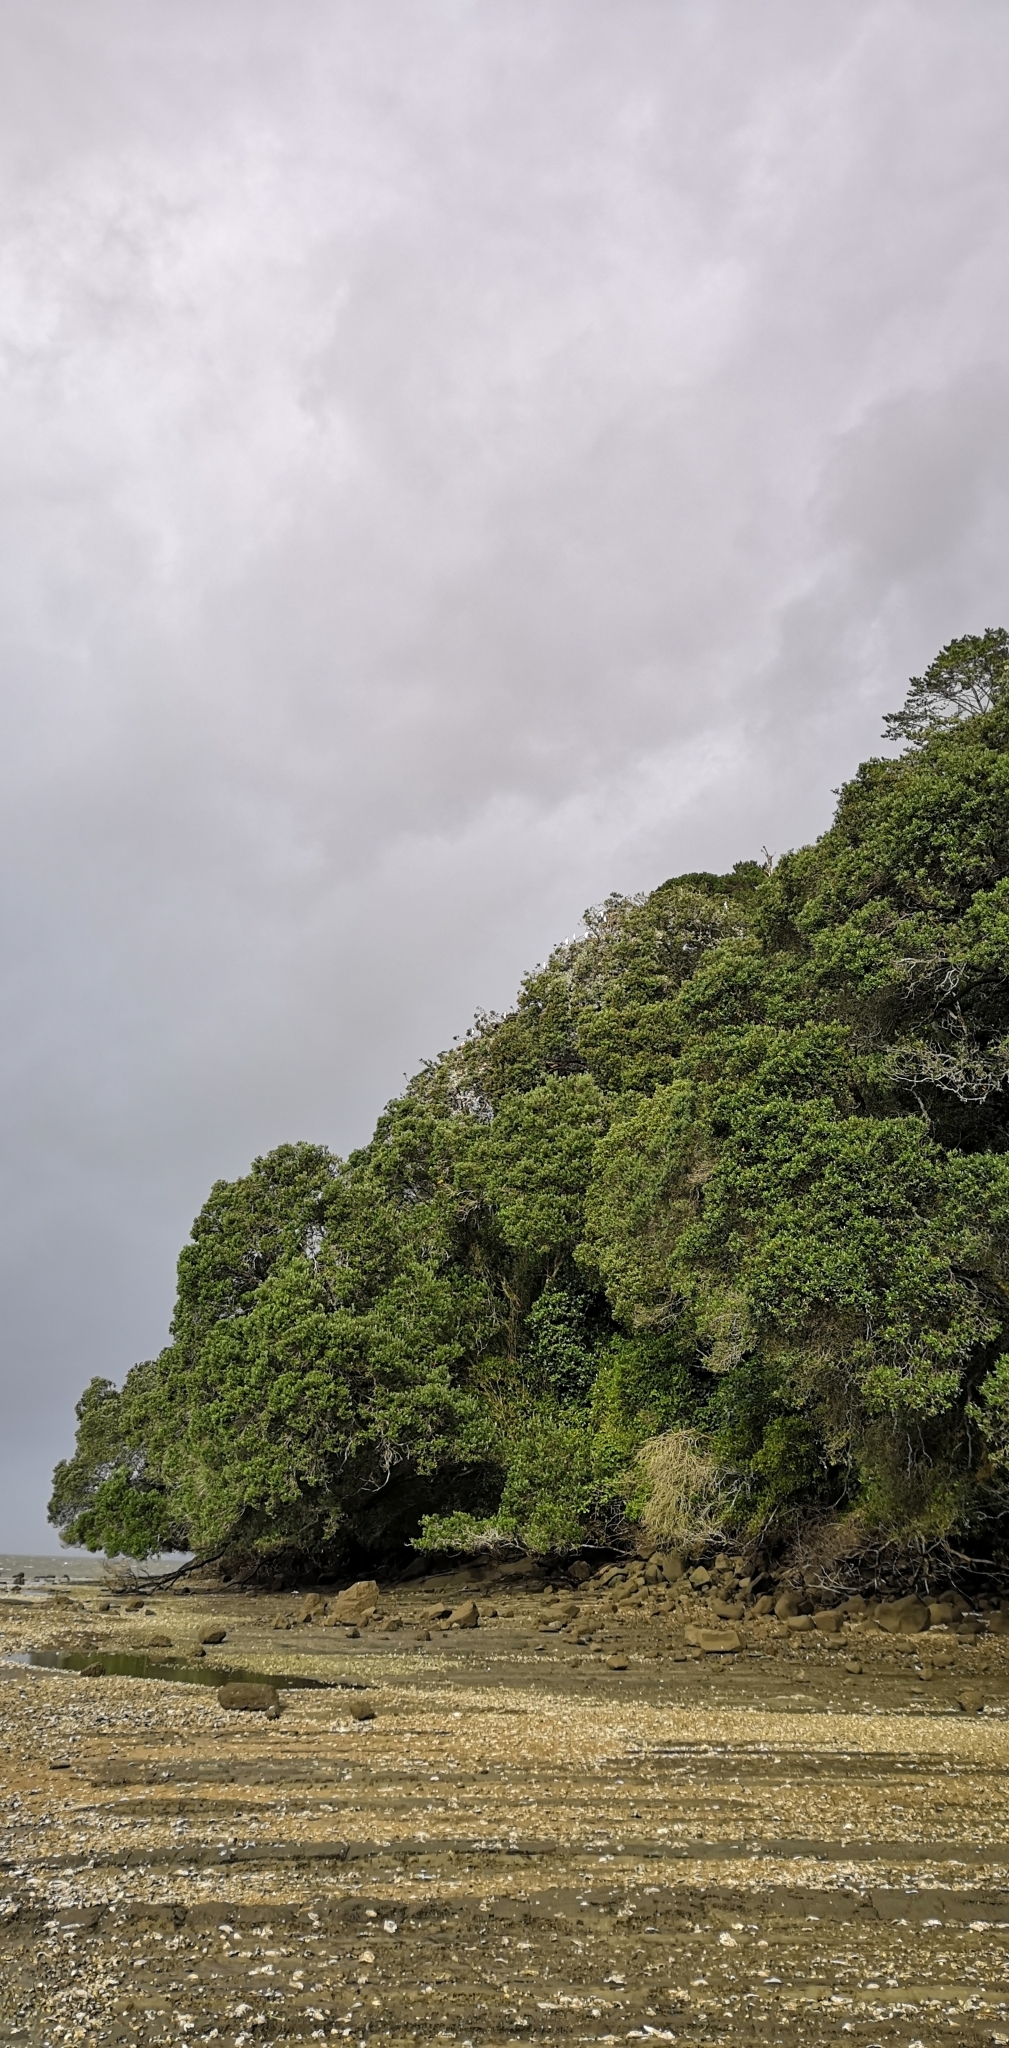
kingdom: Animalia
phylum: Chordata
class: Aves
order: Suliformes
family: Phalacrocoracidae
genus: Microcarbo
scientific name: Microcarbo melanoleucos
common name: Little pied cormorant
